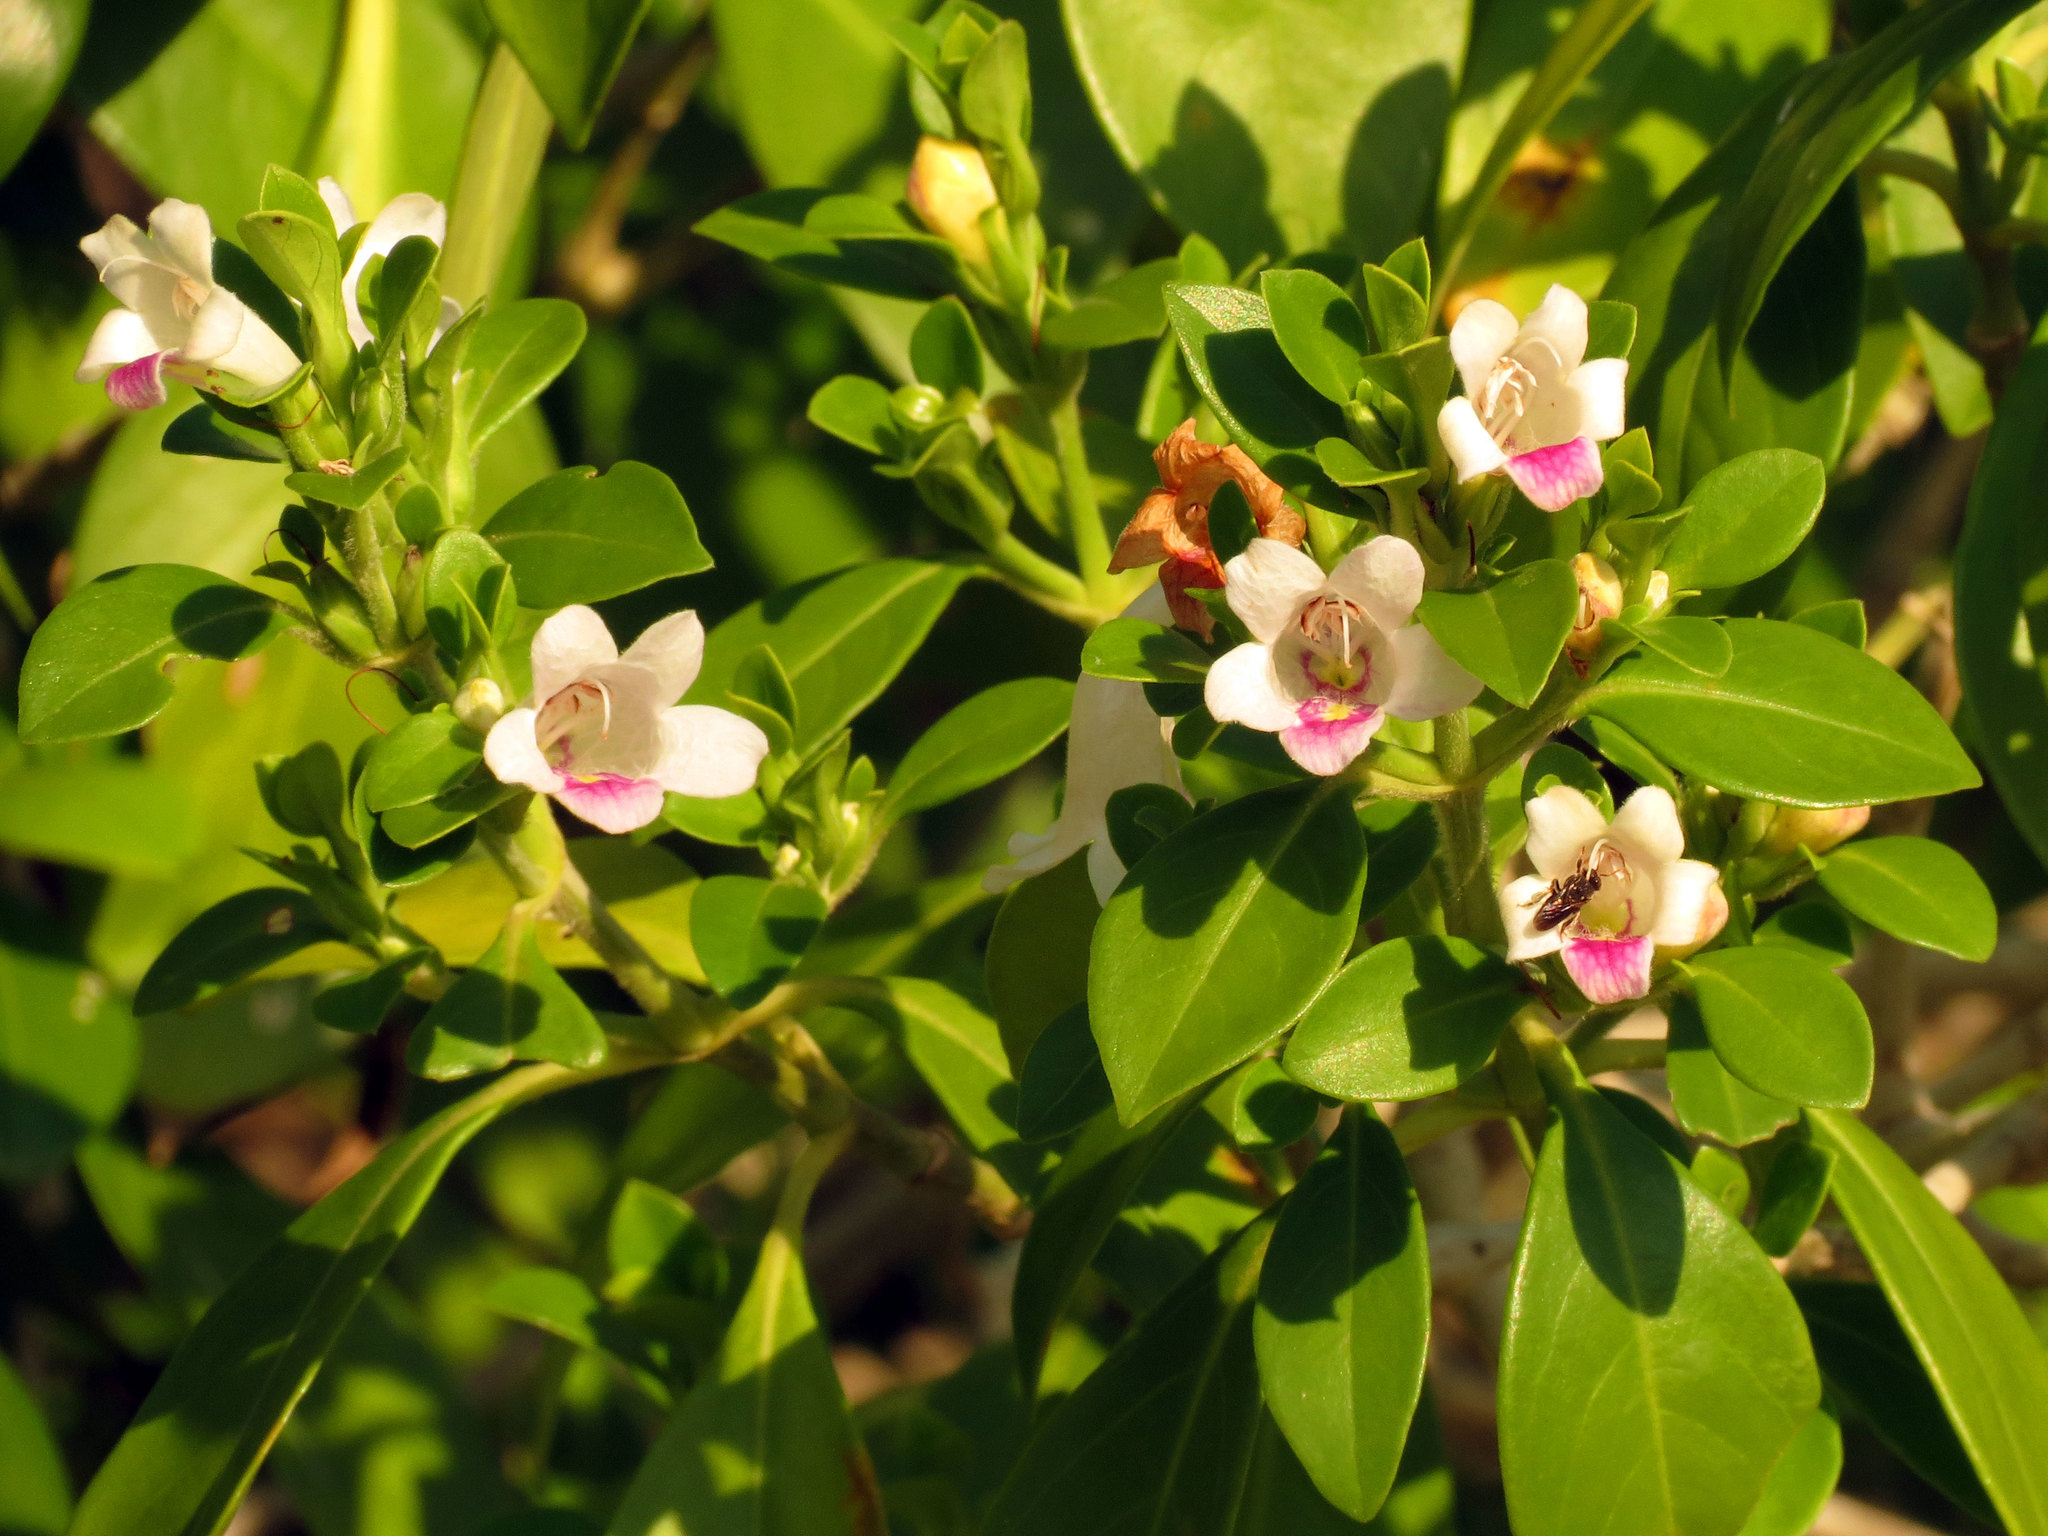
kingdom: Plantae
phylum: Tracheophyta
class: Magnoliopsida
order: Lamiales
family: Acanthaceae
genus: Bravaisia
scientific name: Bravaisia berlandieriana
